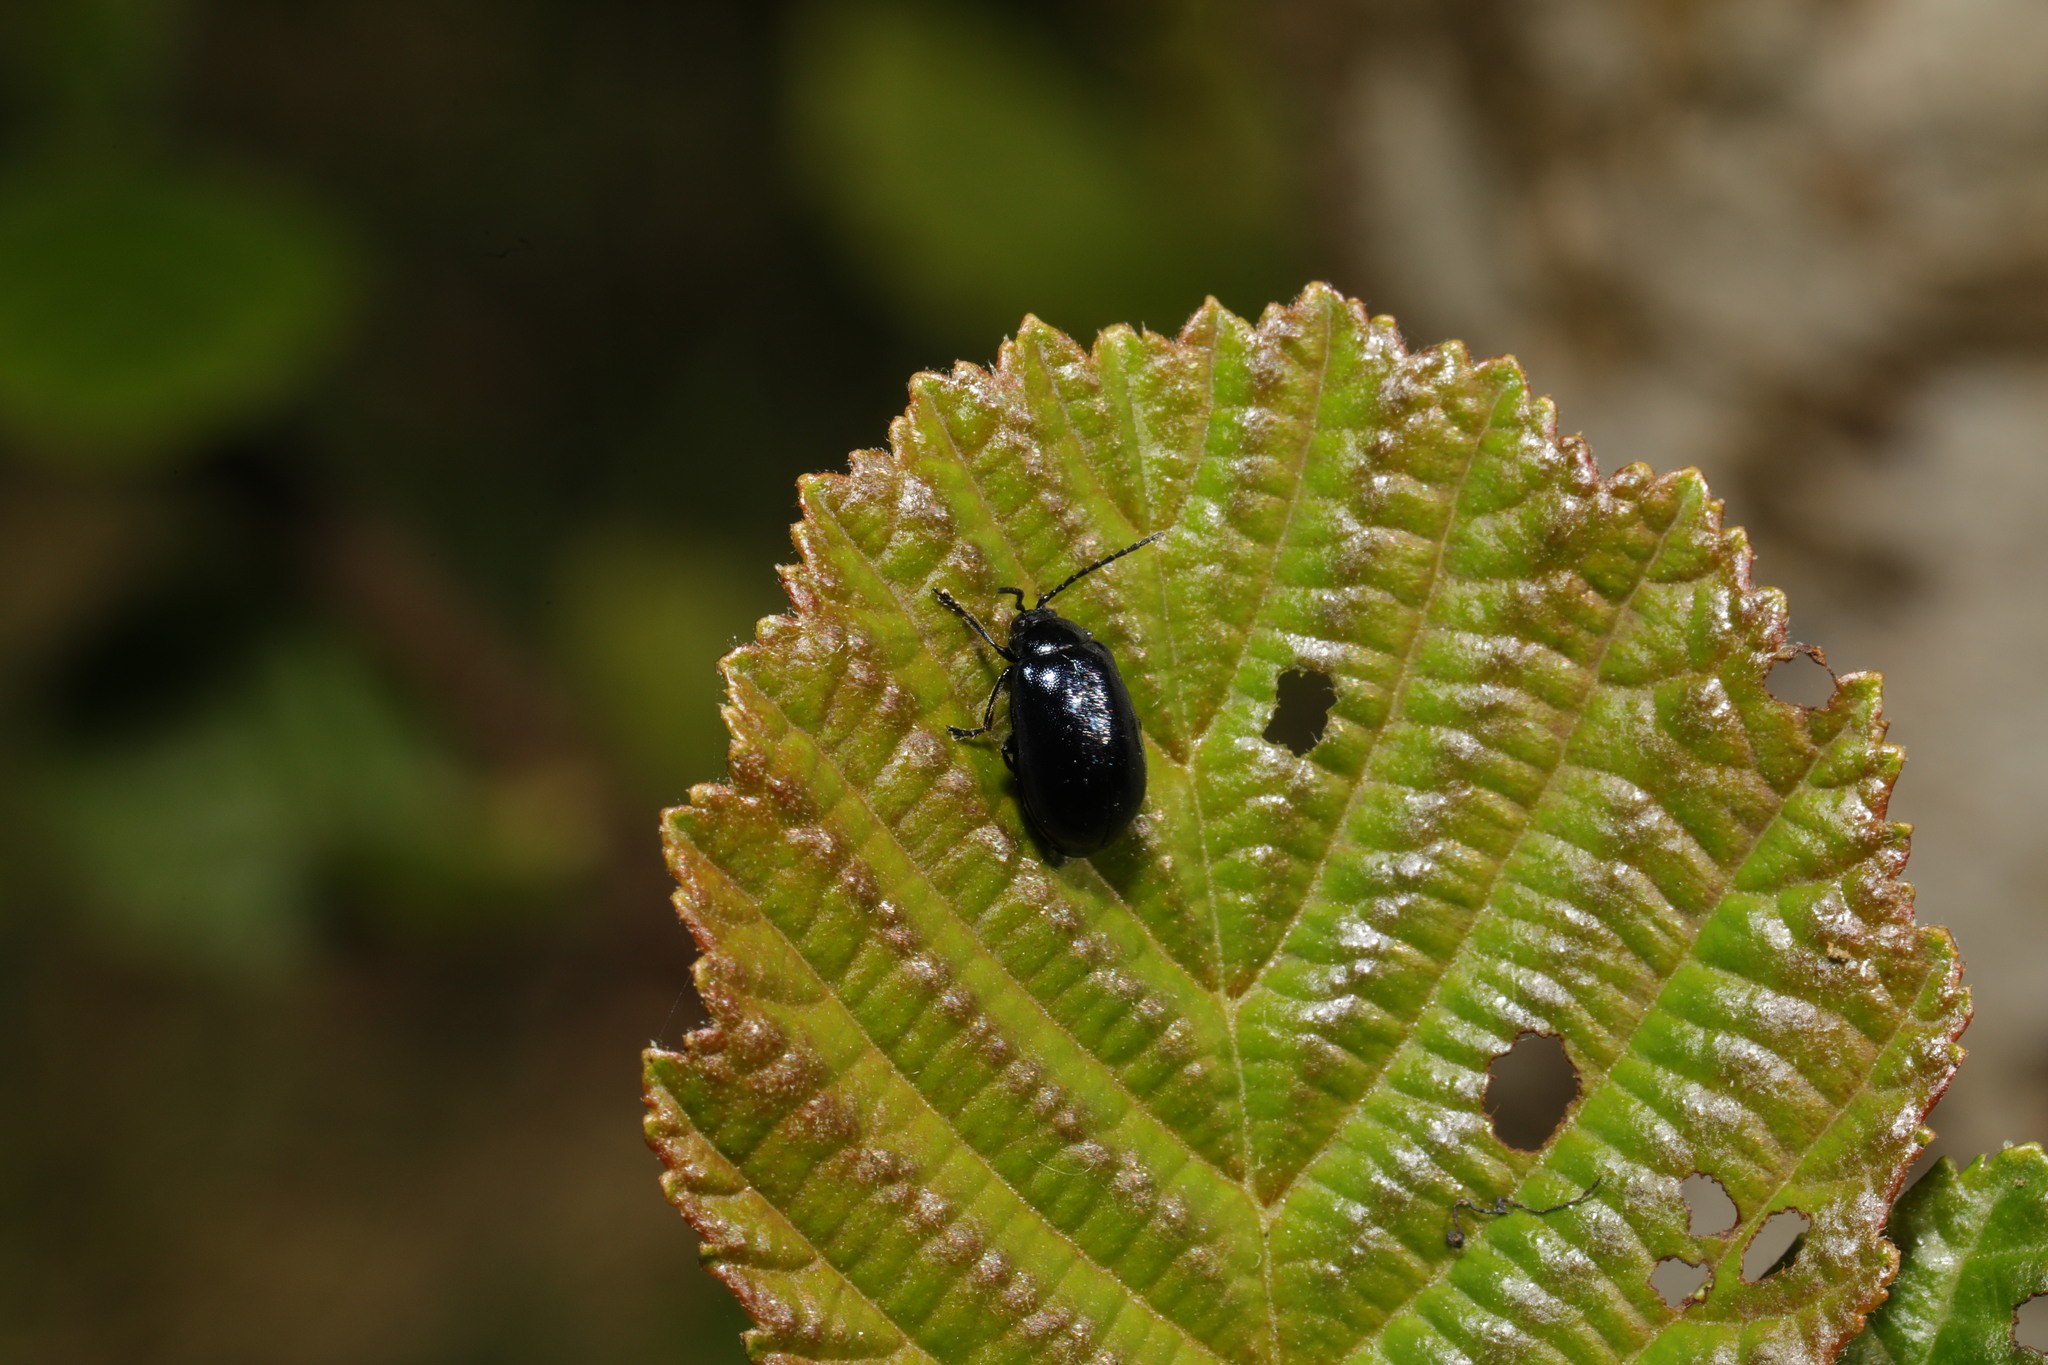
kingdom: Animalia
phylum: Arthropoda
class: Insecta
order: Coleoptera
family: Chrysomelidae
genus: Agelastica
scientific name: Agelastica alni
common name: Alder leaf beetle
